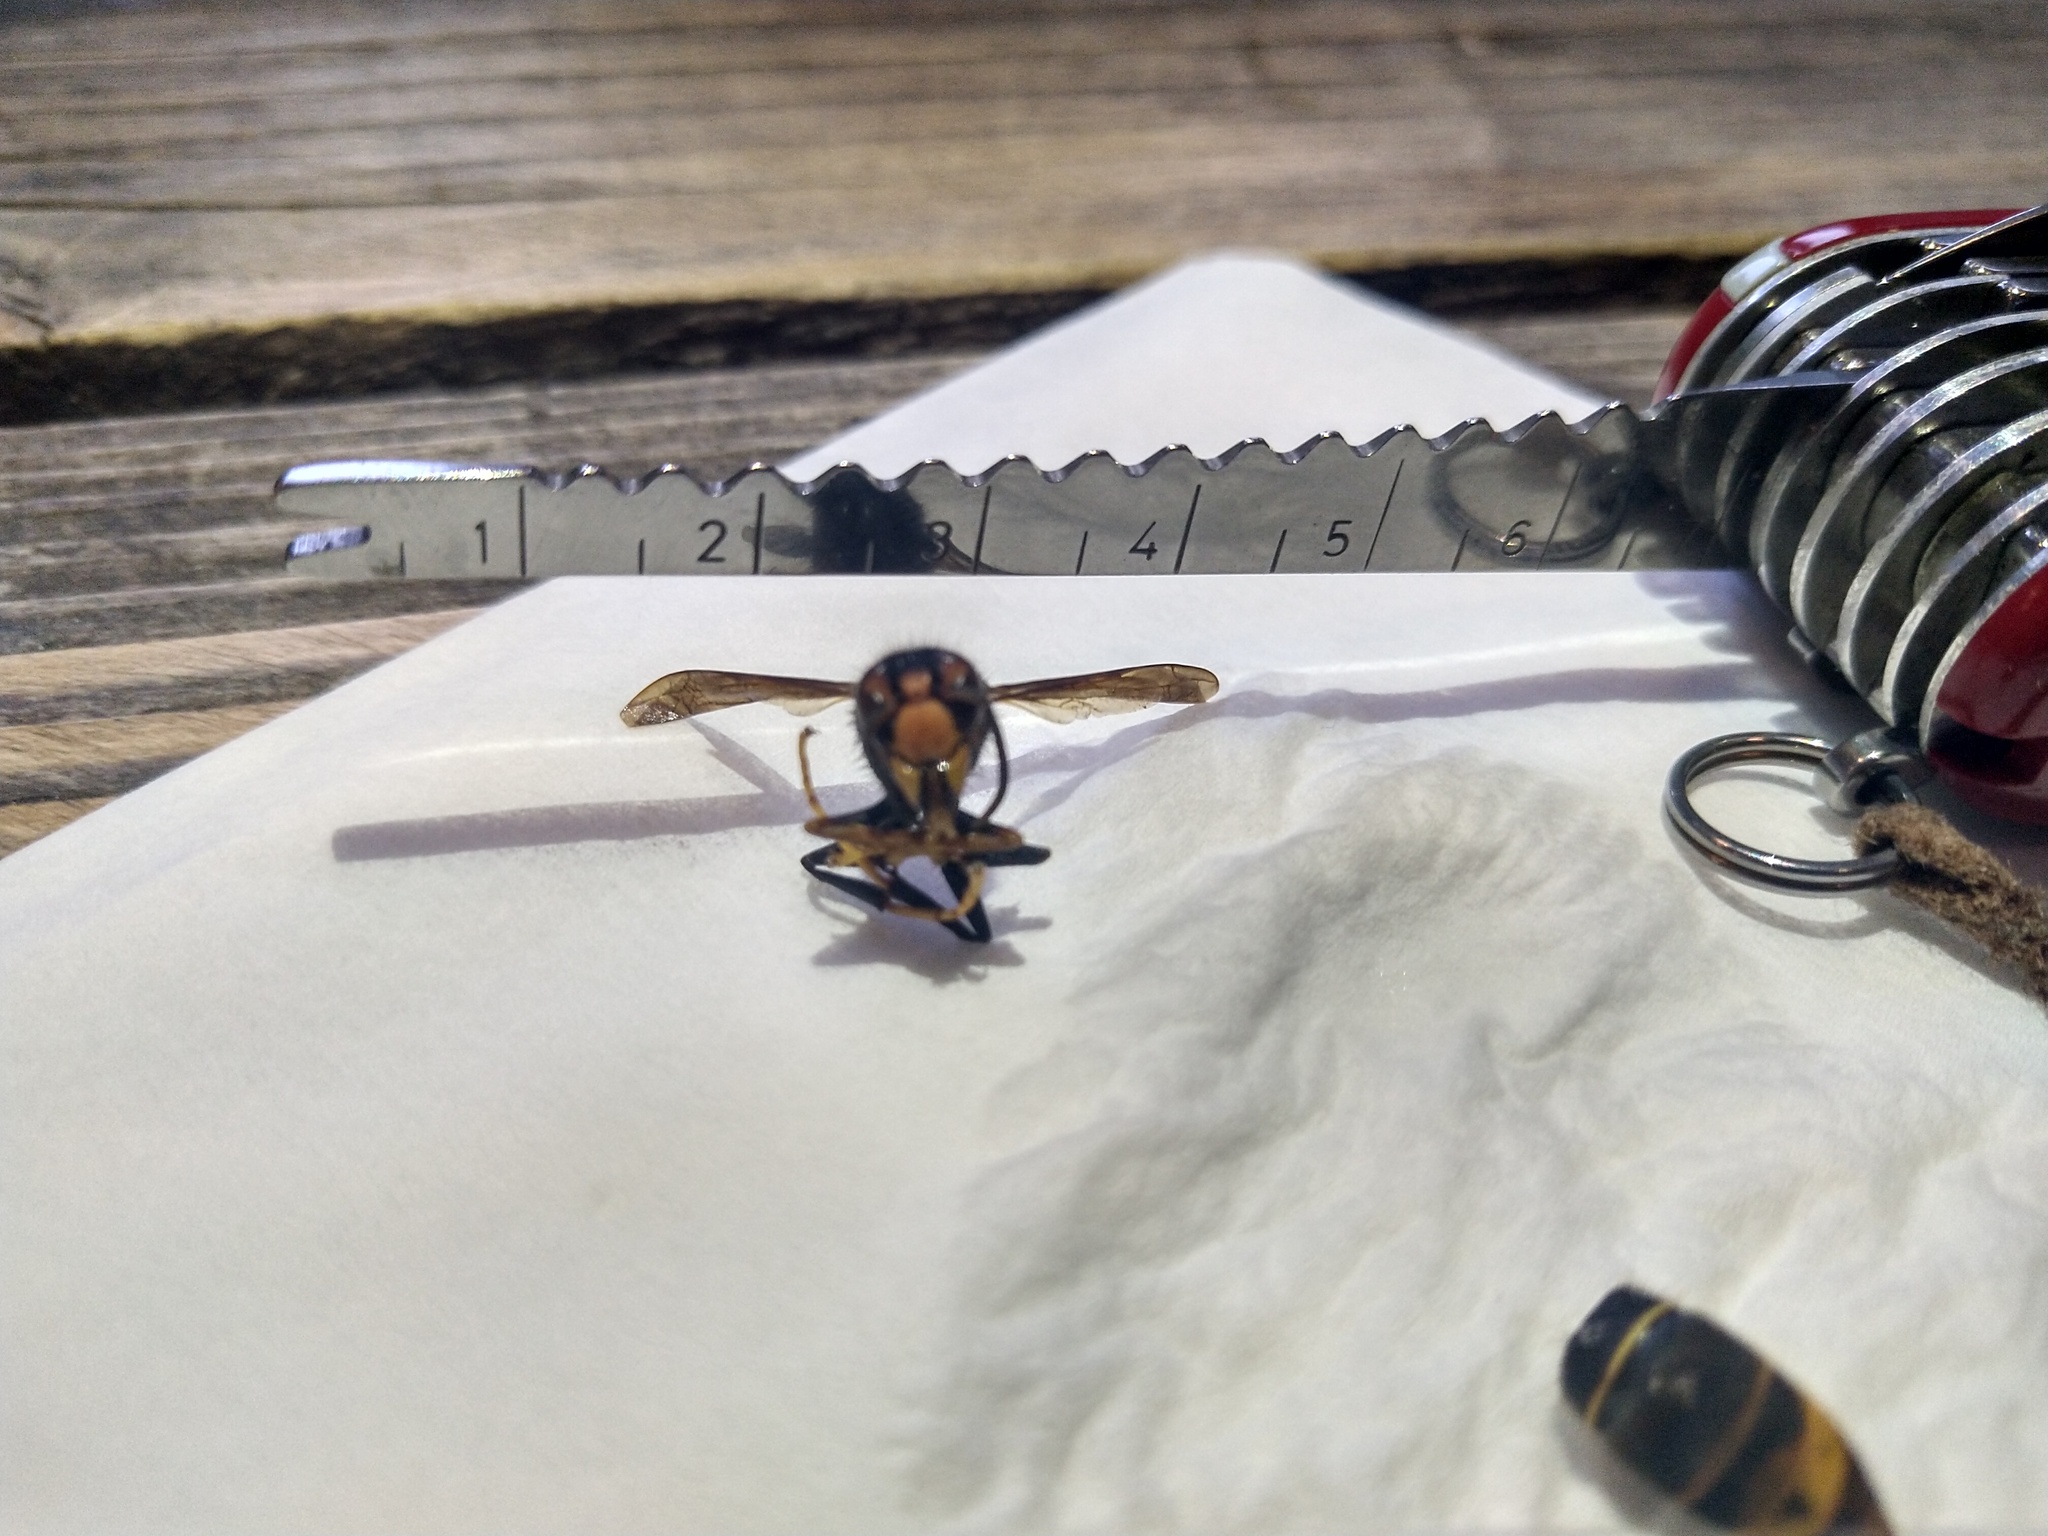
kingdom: Animalia
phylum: Arthropoda
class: Insecta
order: Hymenoptera
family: Vespidae
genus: Vespa
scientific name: Vespa velutina
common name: Asian hornet
